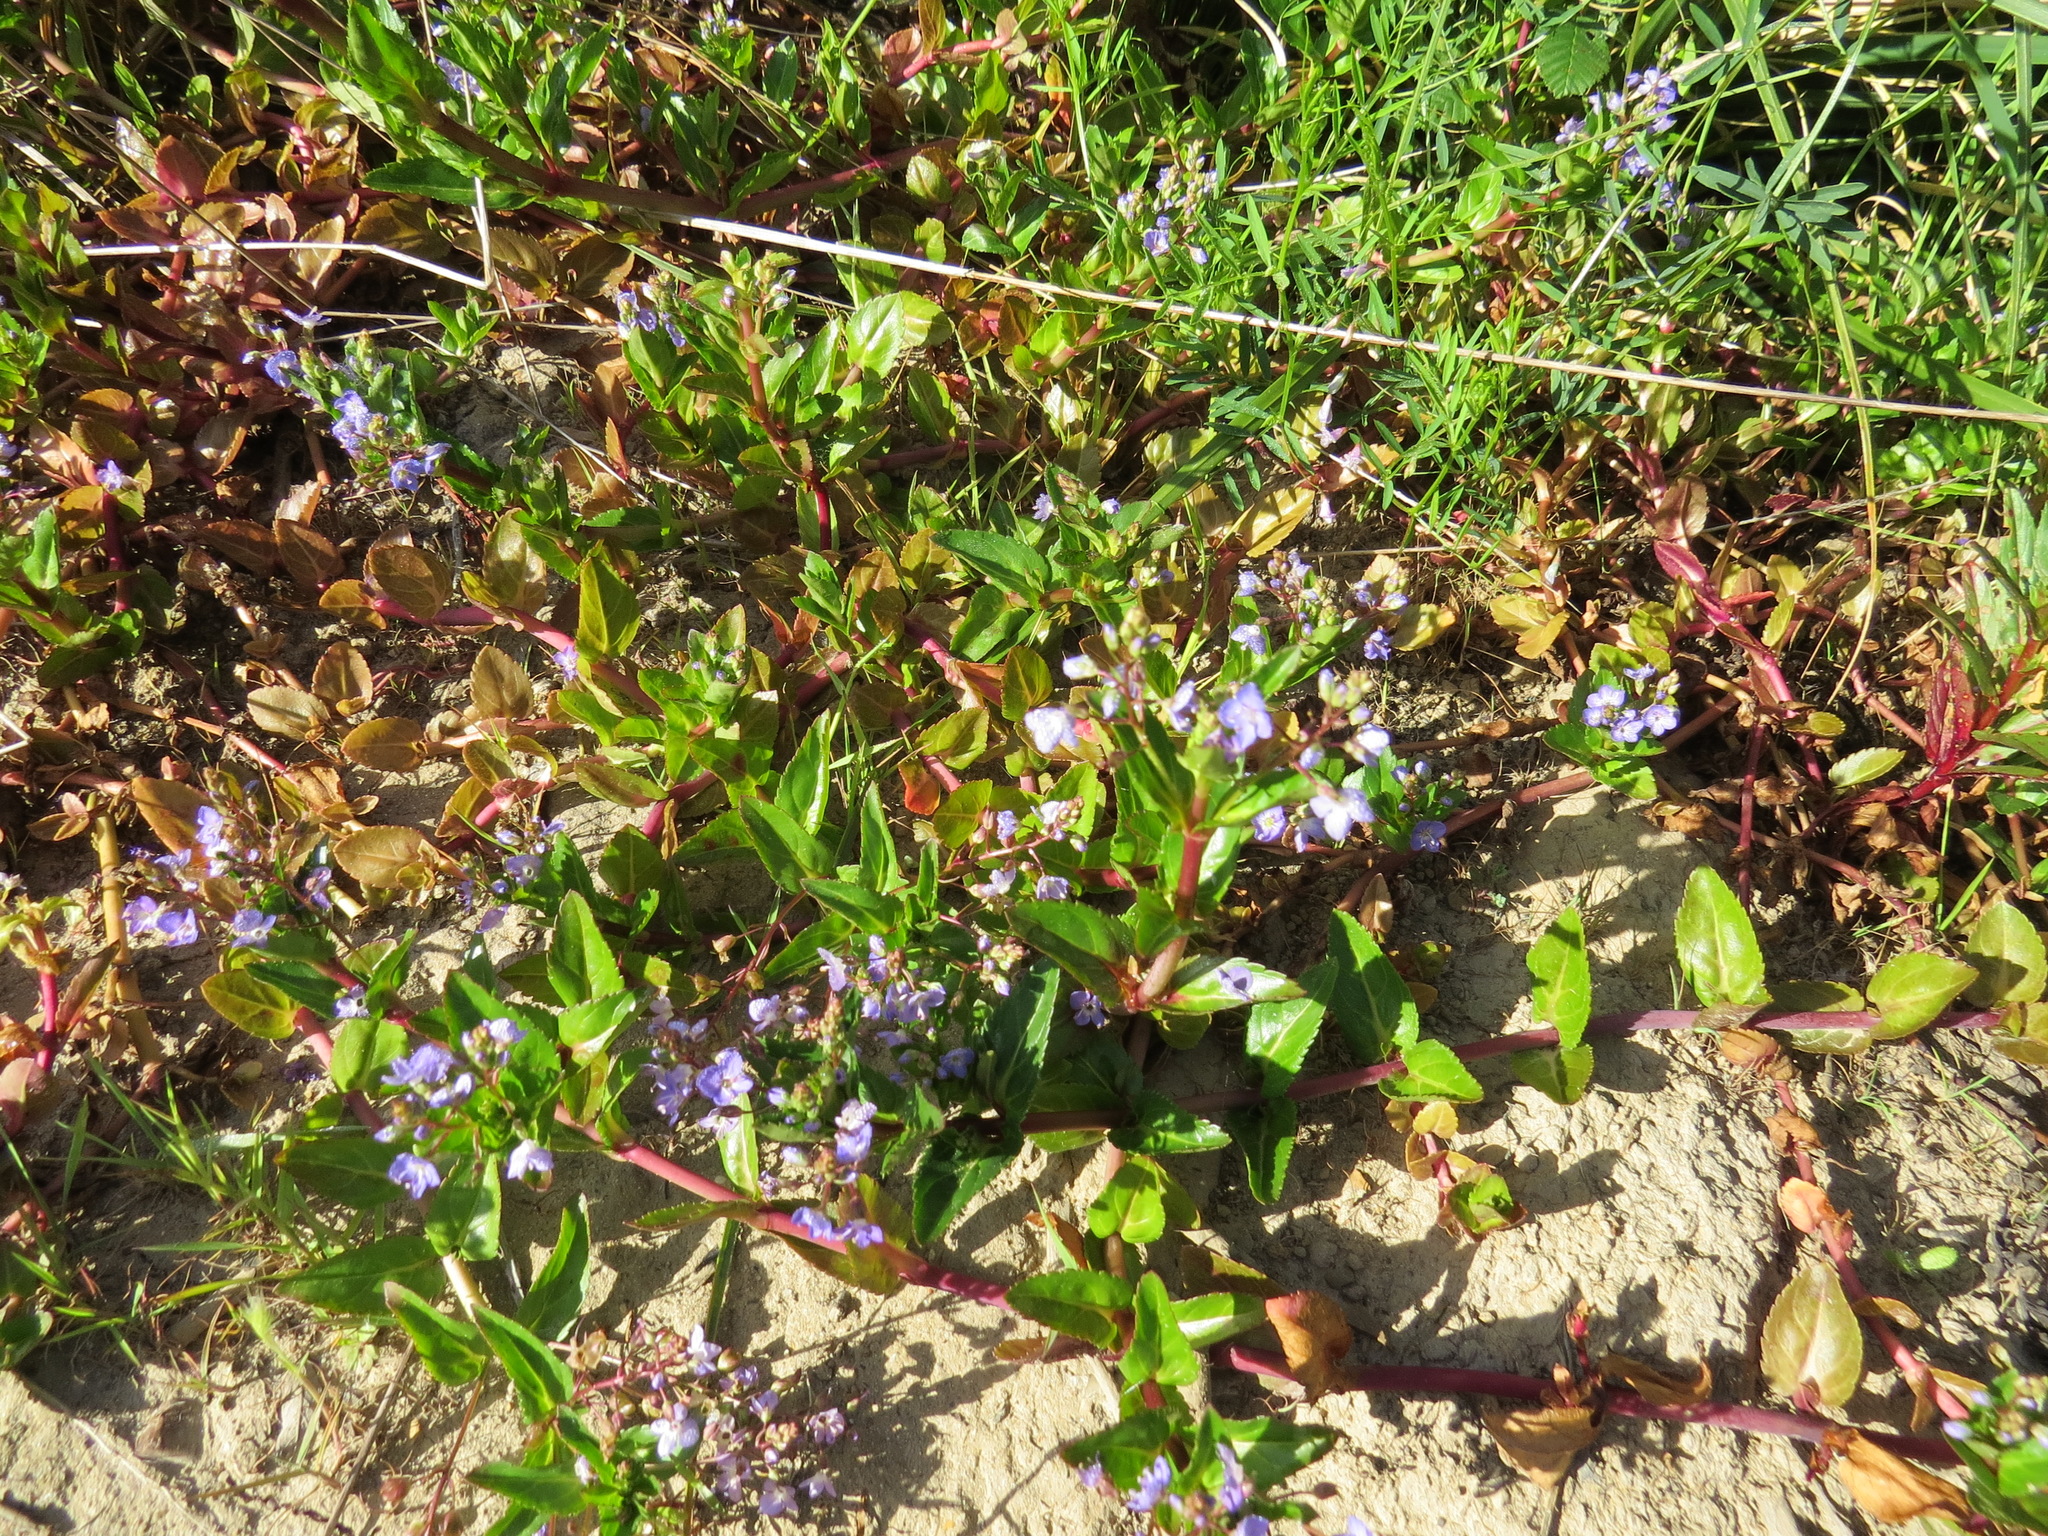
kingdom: Plantae
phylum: Tracheophyta
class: Magnoliopsida
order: Lamiales
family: Plantaginaceae
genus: Veronica
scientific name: Veronica americana
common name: American brooklime
